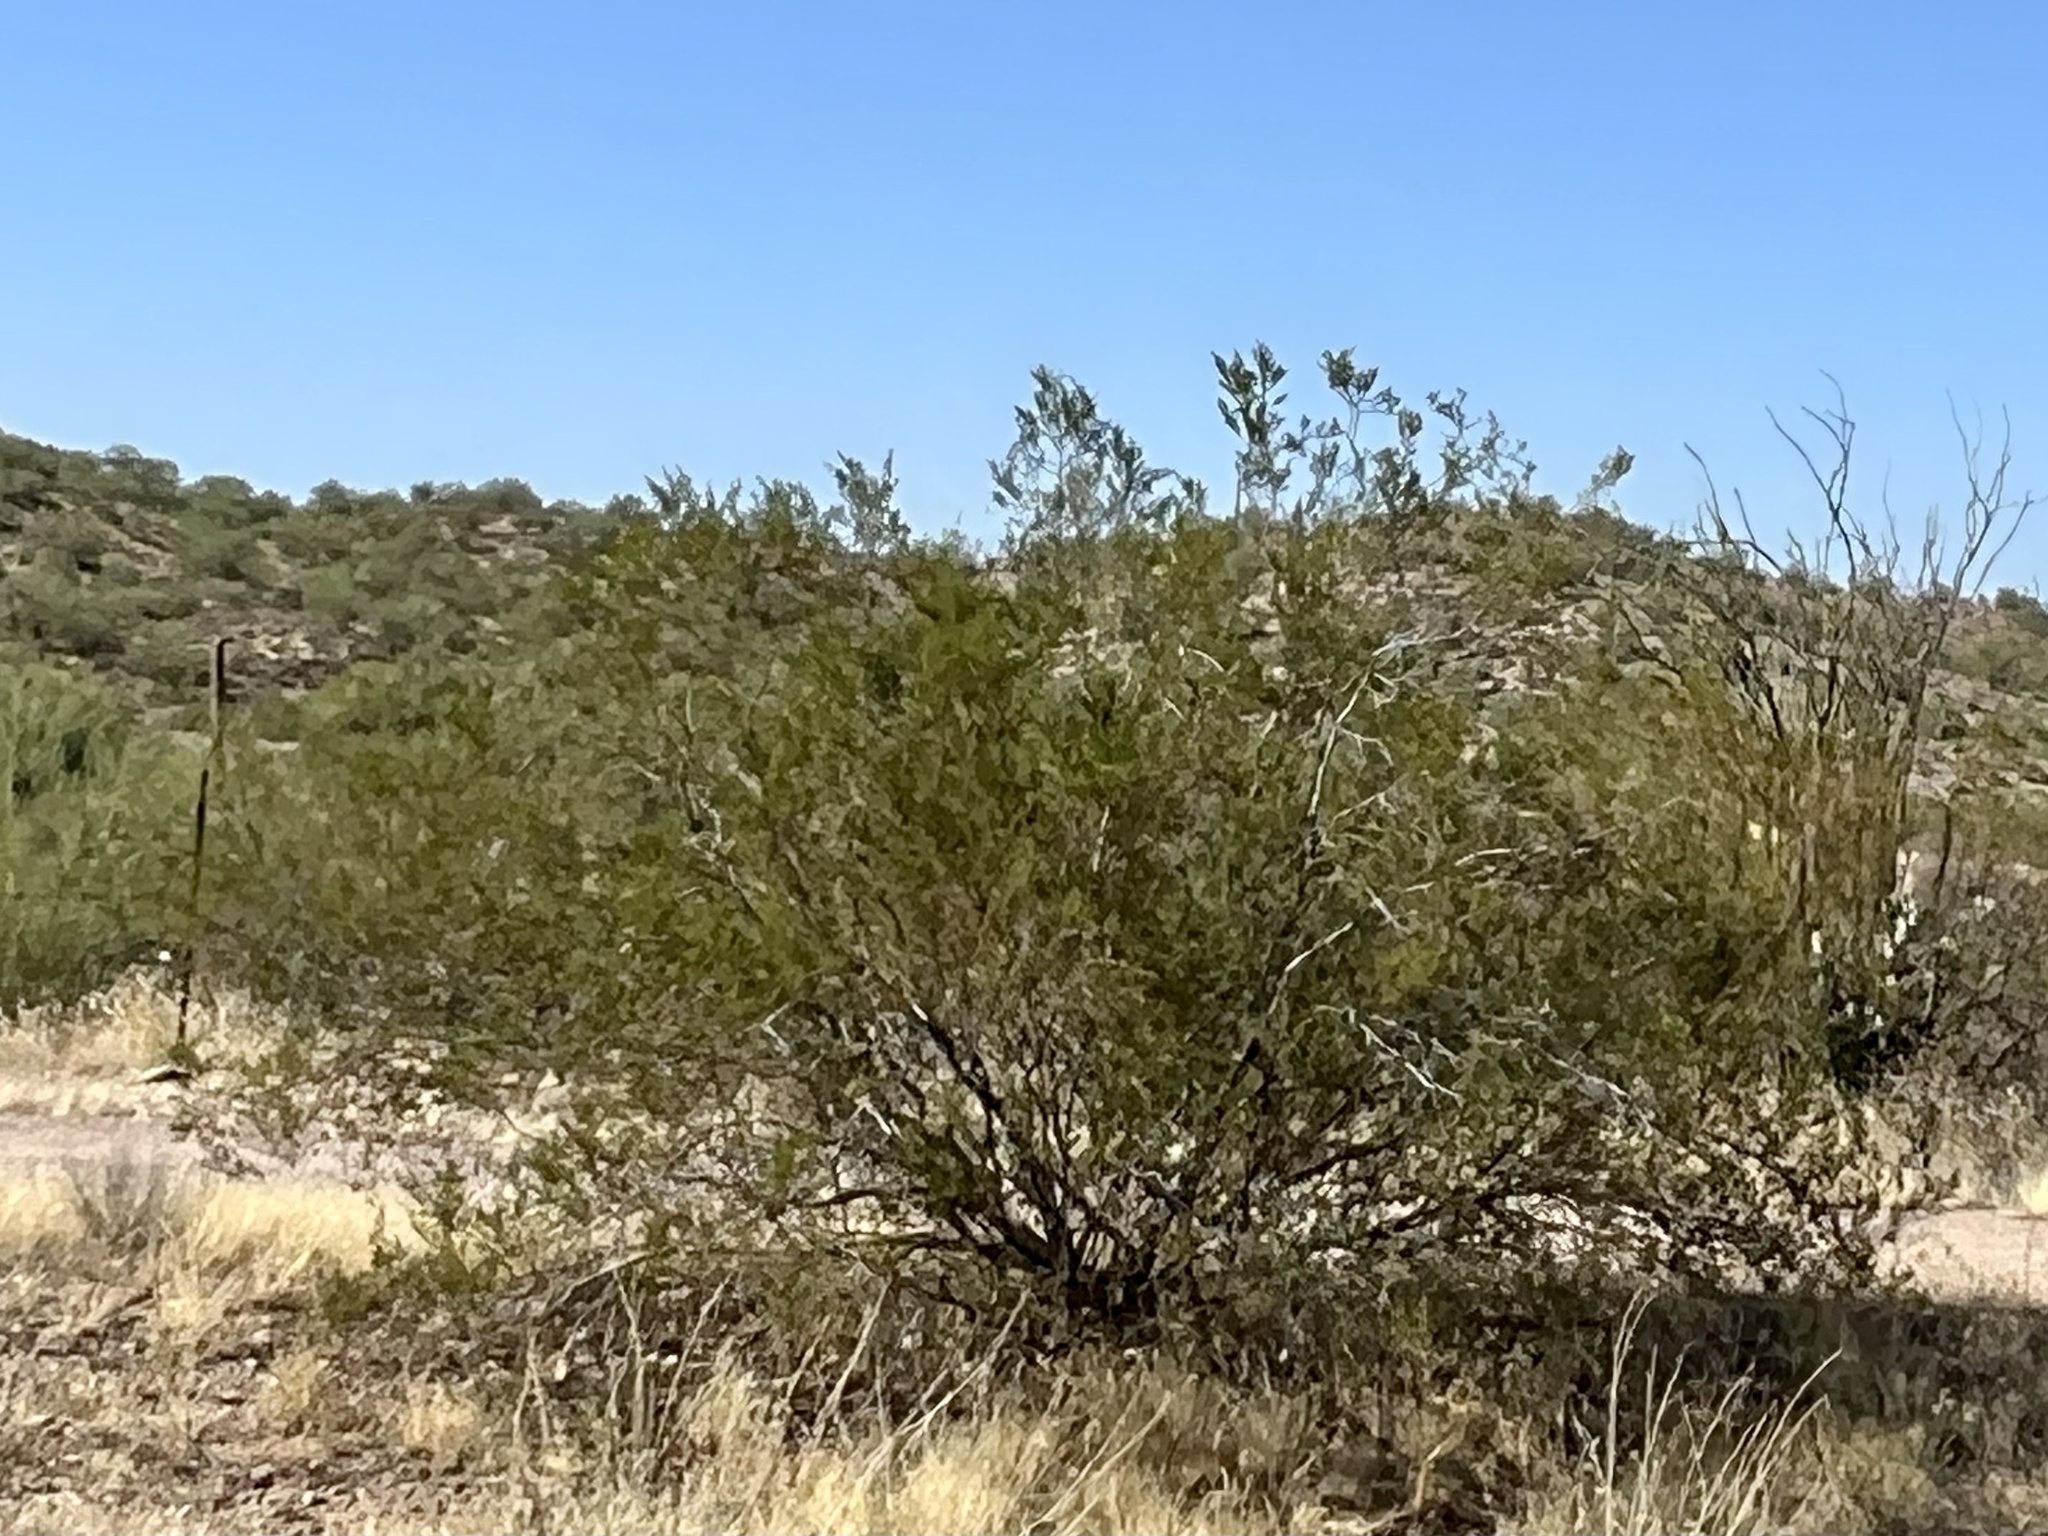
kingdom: Plantae
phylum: Tracheophyta
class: Magnoliopsida
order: Zygophyllales
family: Zygophyllaceae
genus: Larrea
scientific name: Larrea tridentata
